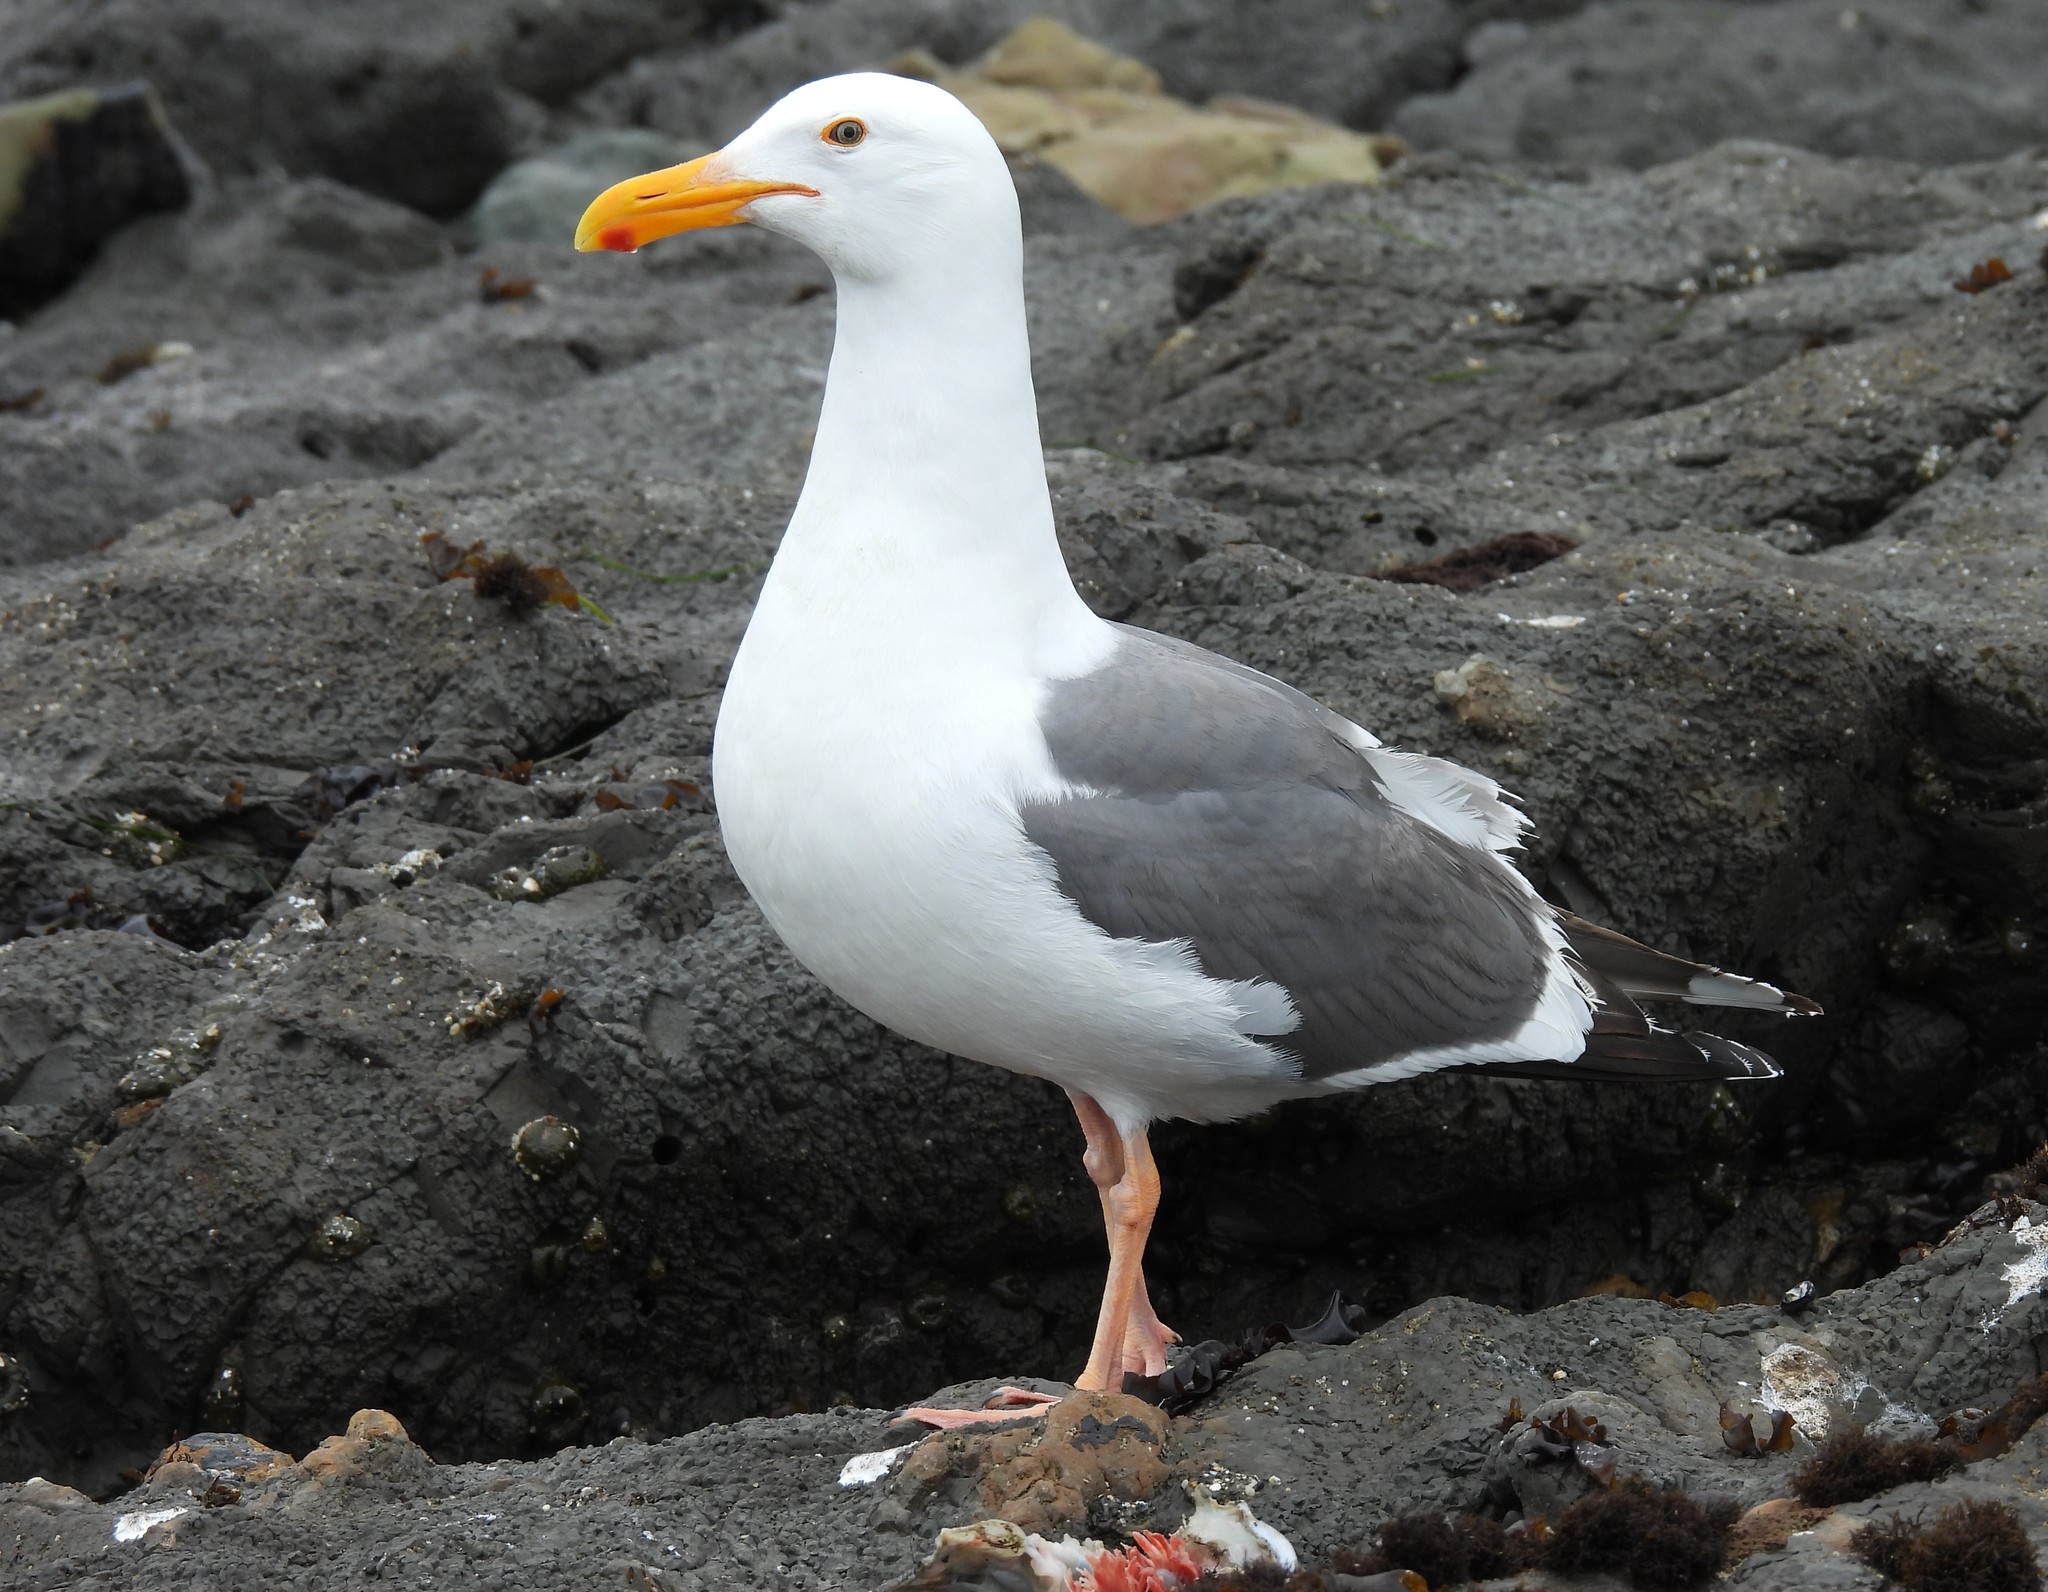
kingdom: Animalia
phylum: Chordata
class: Aves
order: Charadriiformes
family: Laridae
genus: Larus
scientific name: Larus occidentalis
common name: Western gull
